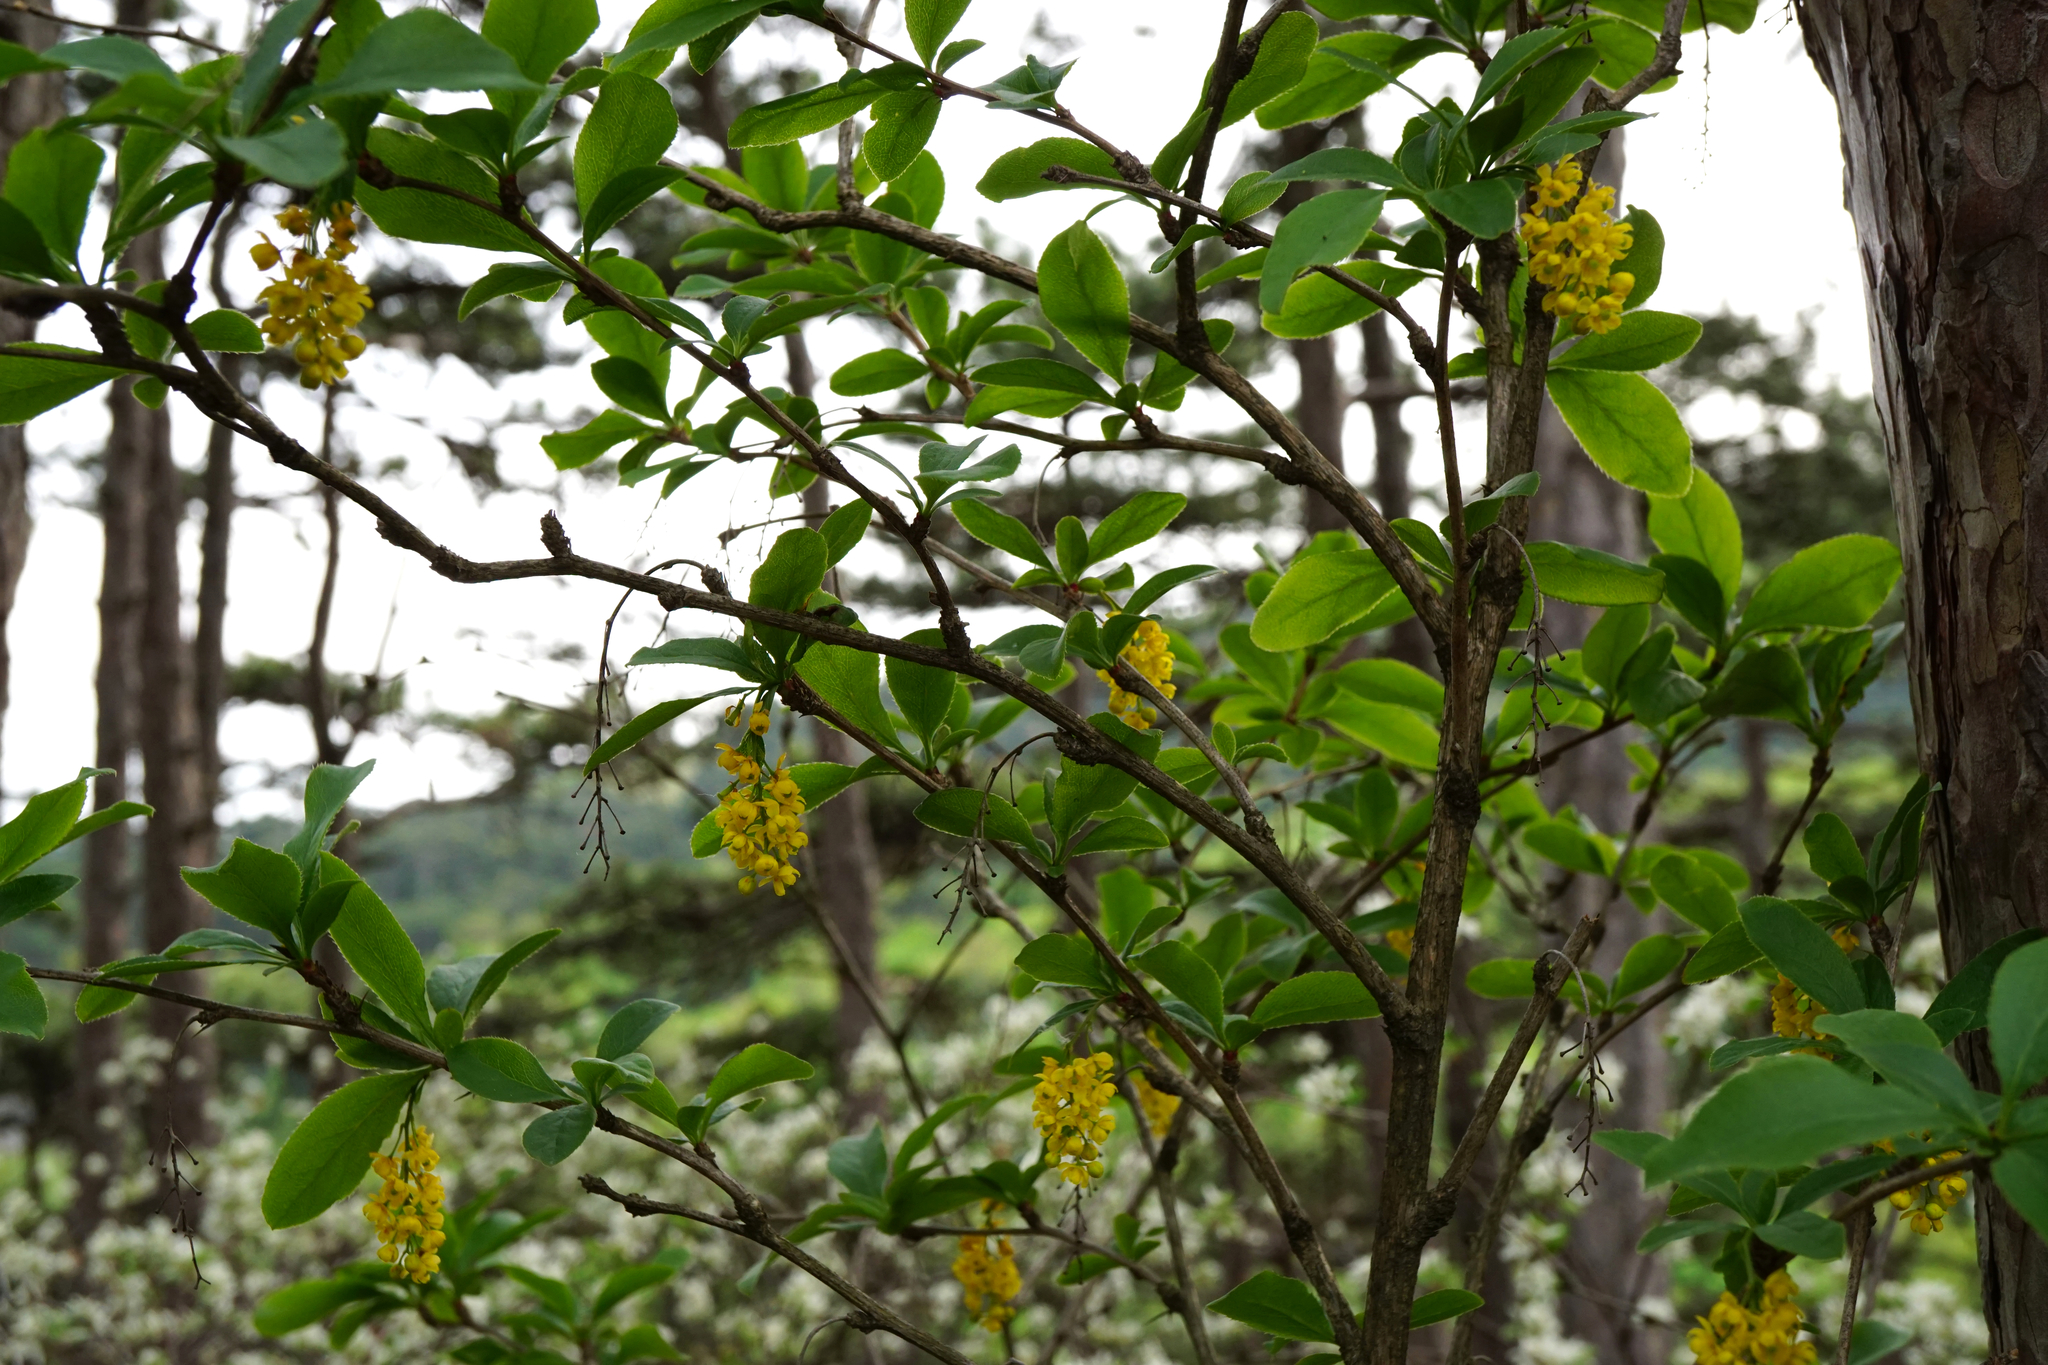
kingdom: Plantae
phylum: Tracheophyta
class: Magnoliopsida
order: Ranunculales
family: Berberidaceae
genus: Berberis
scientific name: Berberis vulgaris
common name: Barberry
